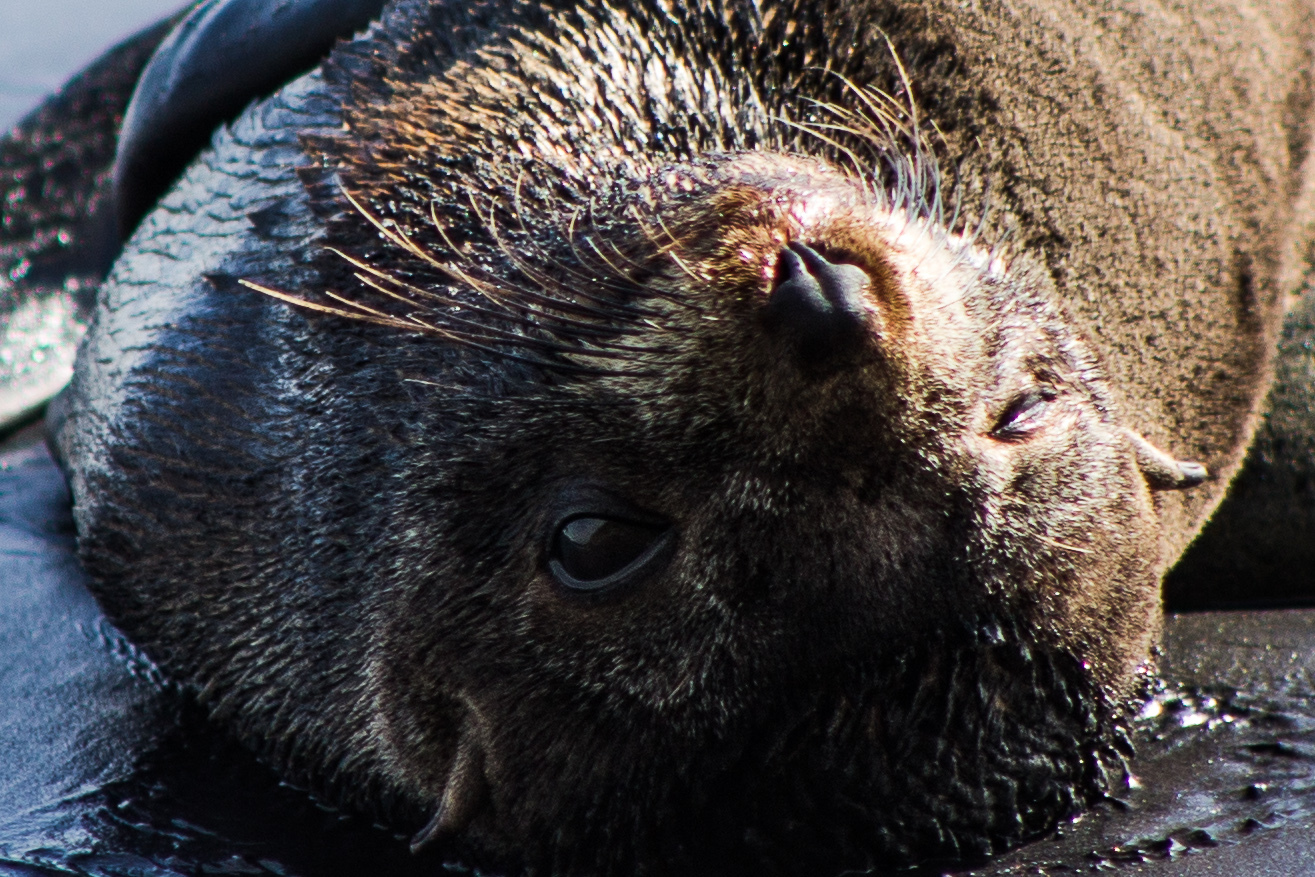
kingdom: Animalia
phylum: Chordata
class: Mammalia
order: Carnivora
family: Otariidae
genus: Arctocephalus
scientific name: Arctocephalus forsteri
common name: New zealand fur seal
